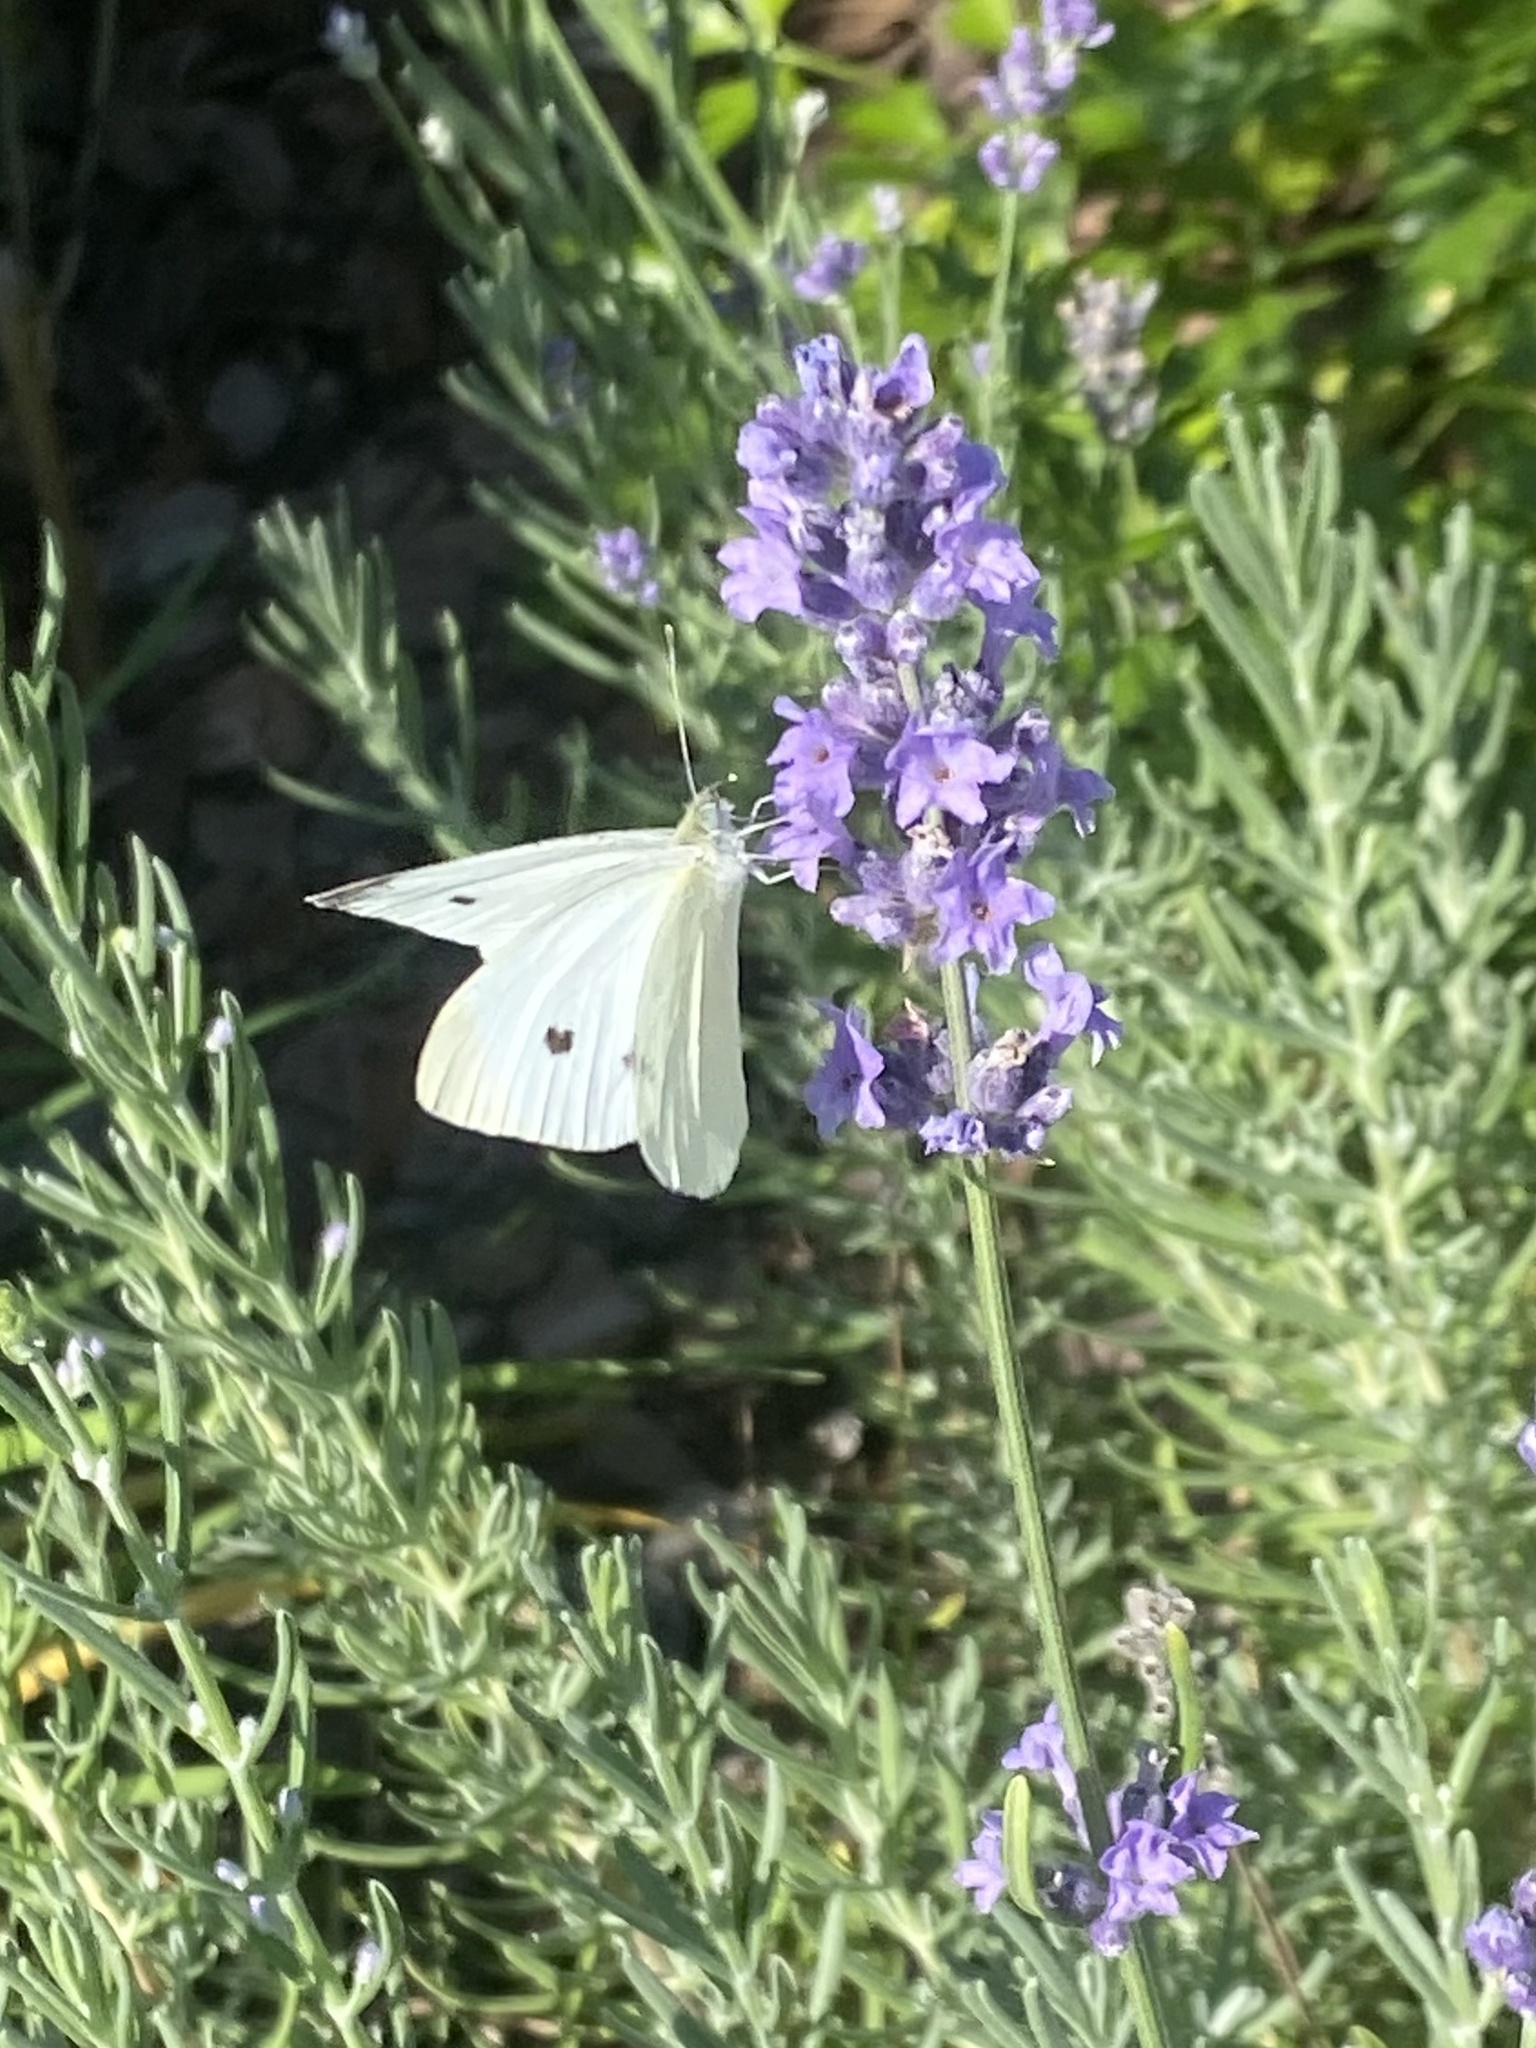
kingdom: Animalia
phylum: Arthropoda
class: Insecta
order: Lepidoptera
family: Pieridae
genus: Pieris
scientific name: Pieris rapae
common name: Small white
